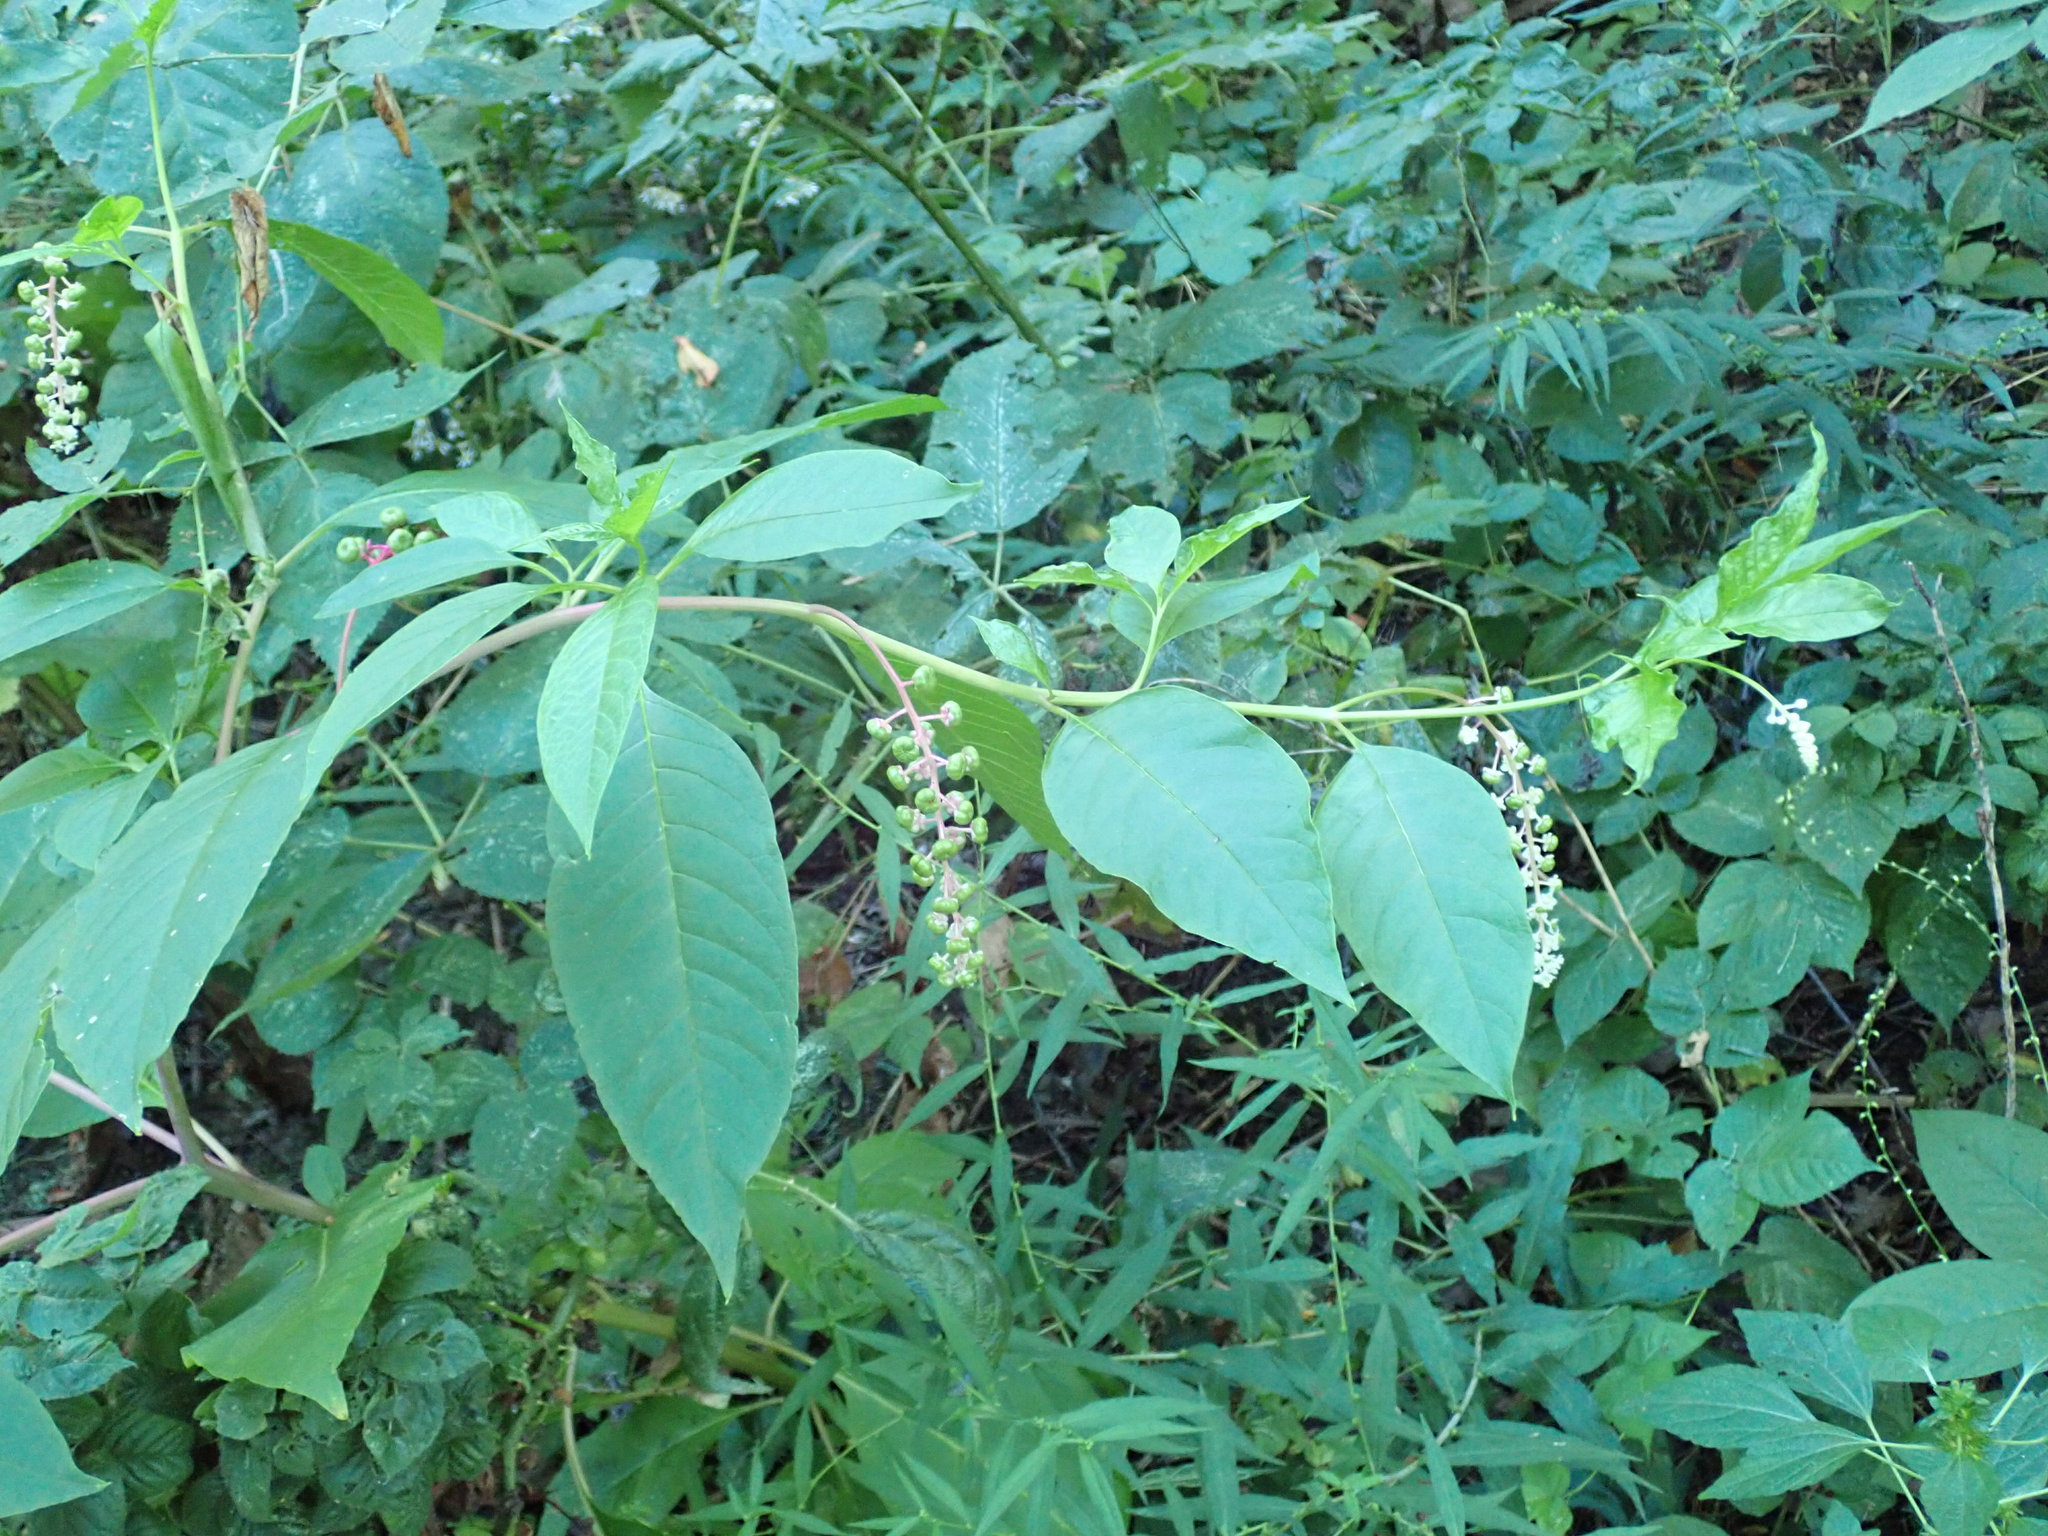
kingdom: Plantae
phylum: Tracheophyta
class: Magnoliopsida
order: Caryophyllales
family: Phytolaccaceae
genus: Phytolacca
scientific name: Phytolacca americana
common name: American pokeweed
